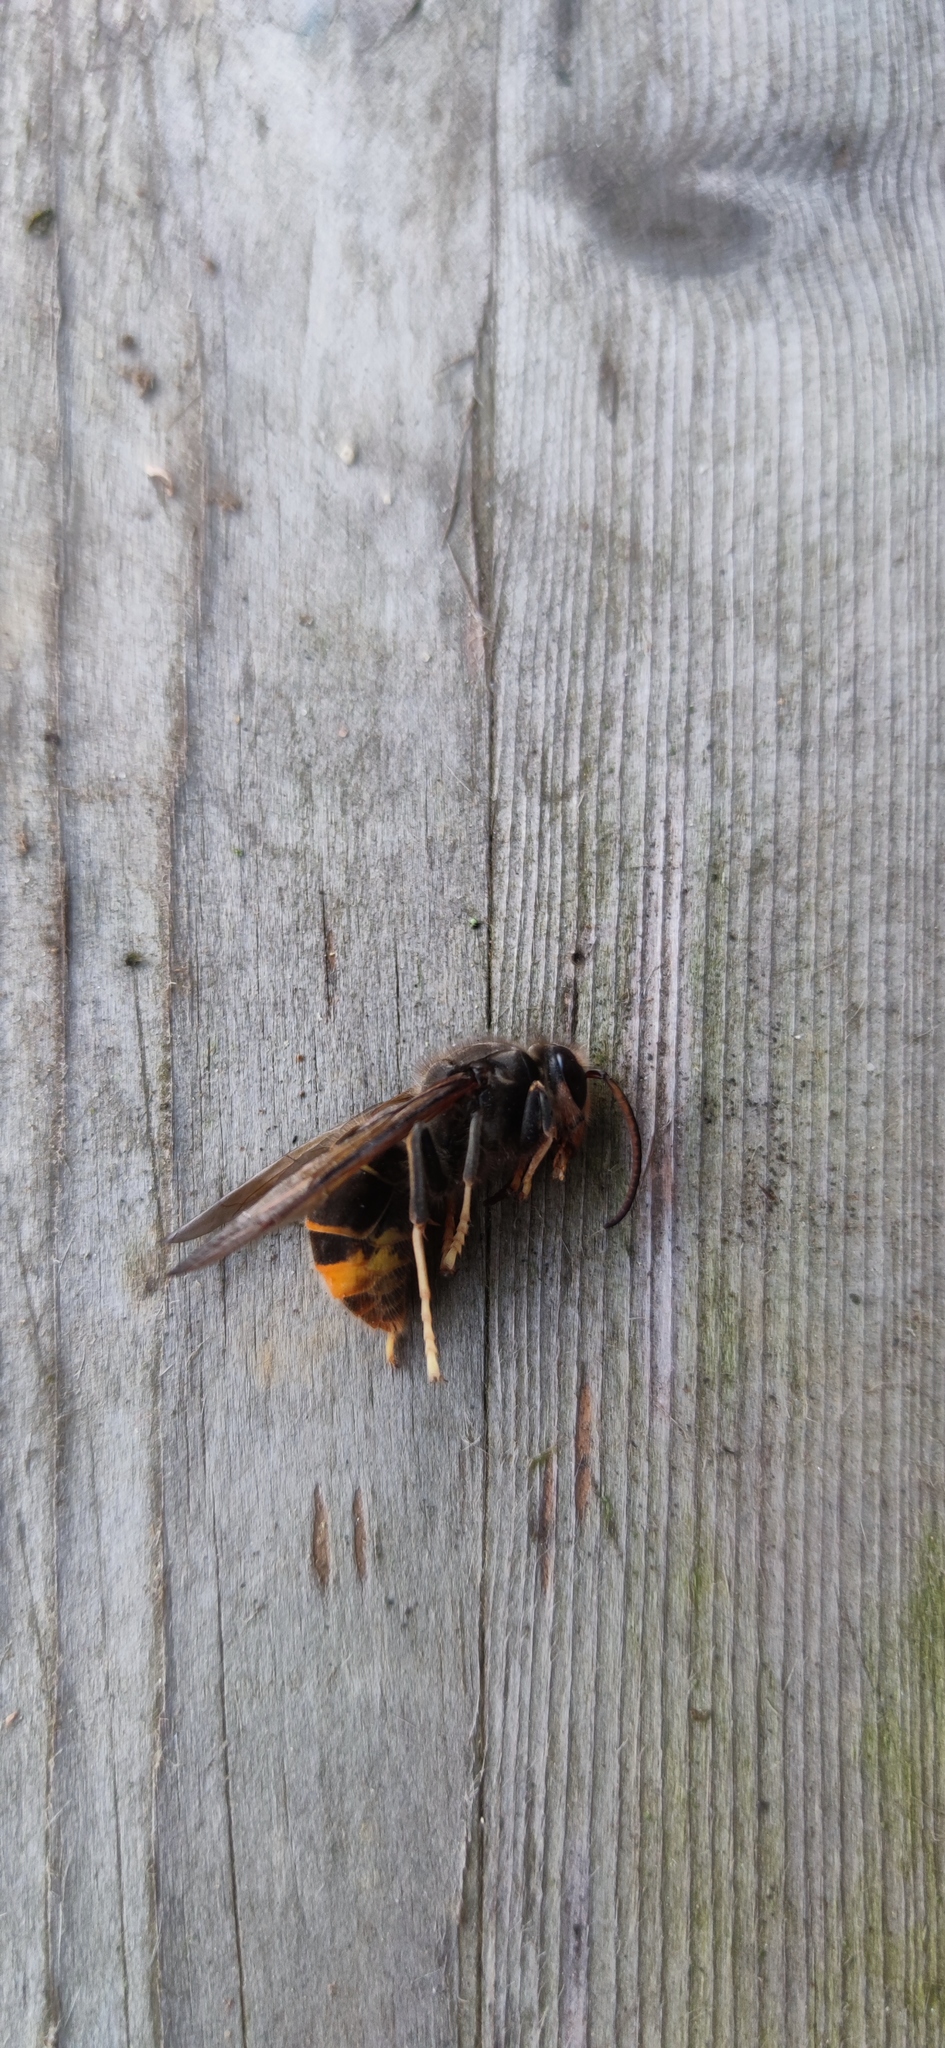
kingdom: Animalia
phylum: Arthropoda
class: Insecta
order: Hymenoptera
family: Vespidae
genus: Vespa
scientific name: Vespa velutina
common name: Asian hornet
